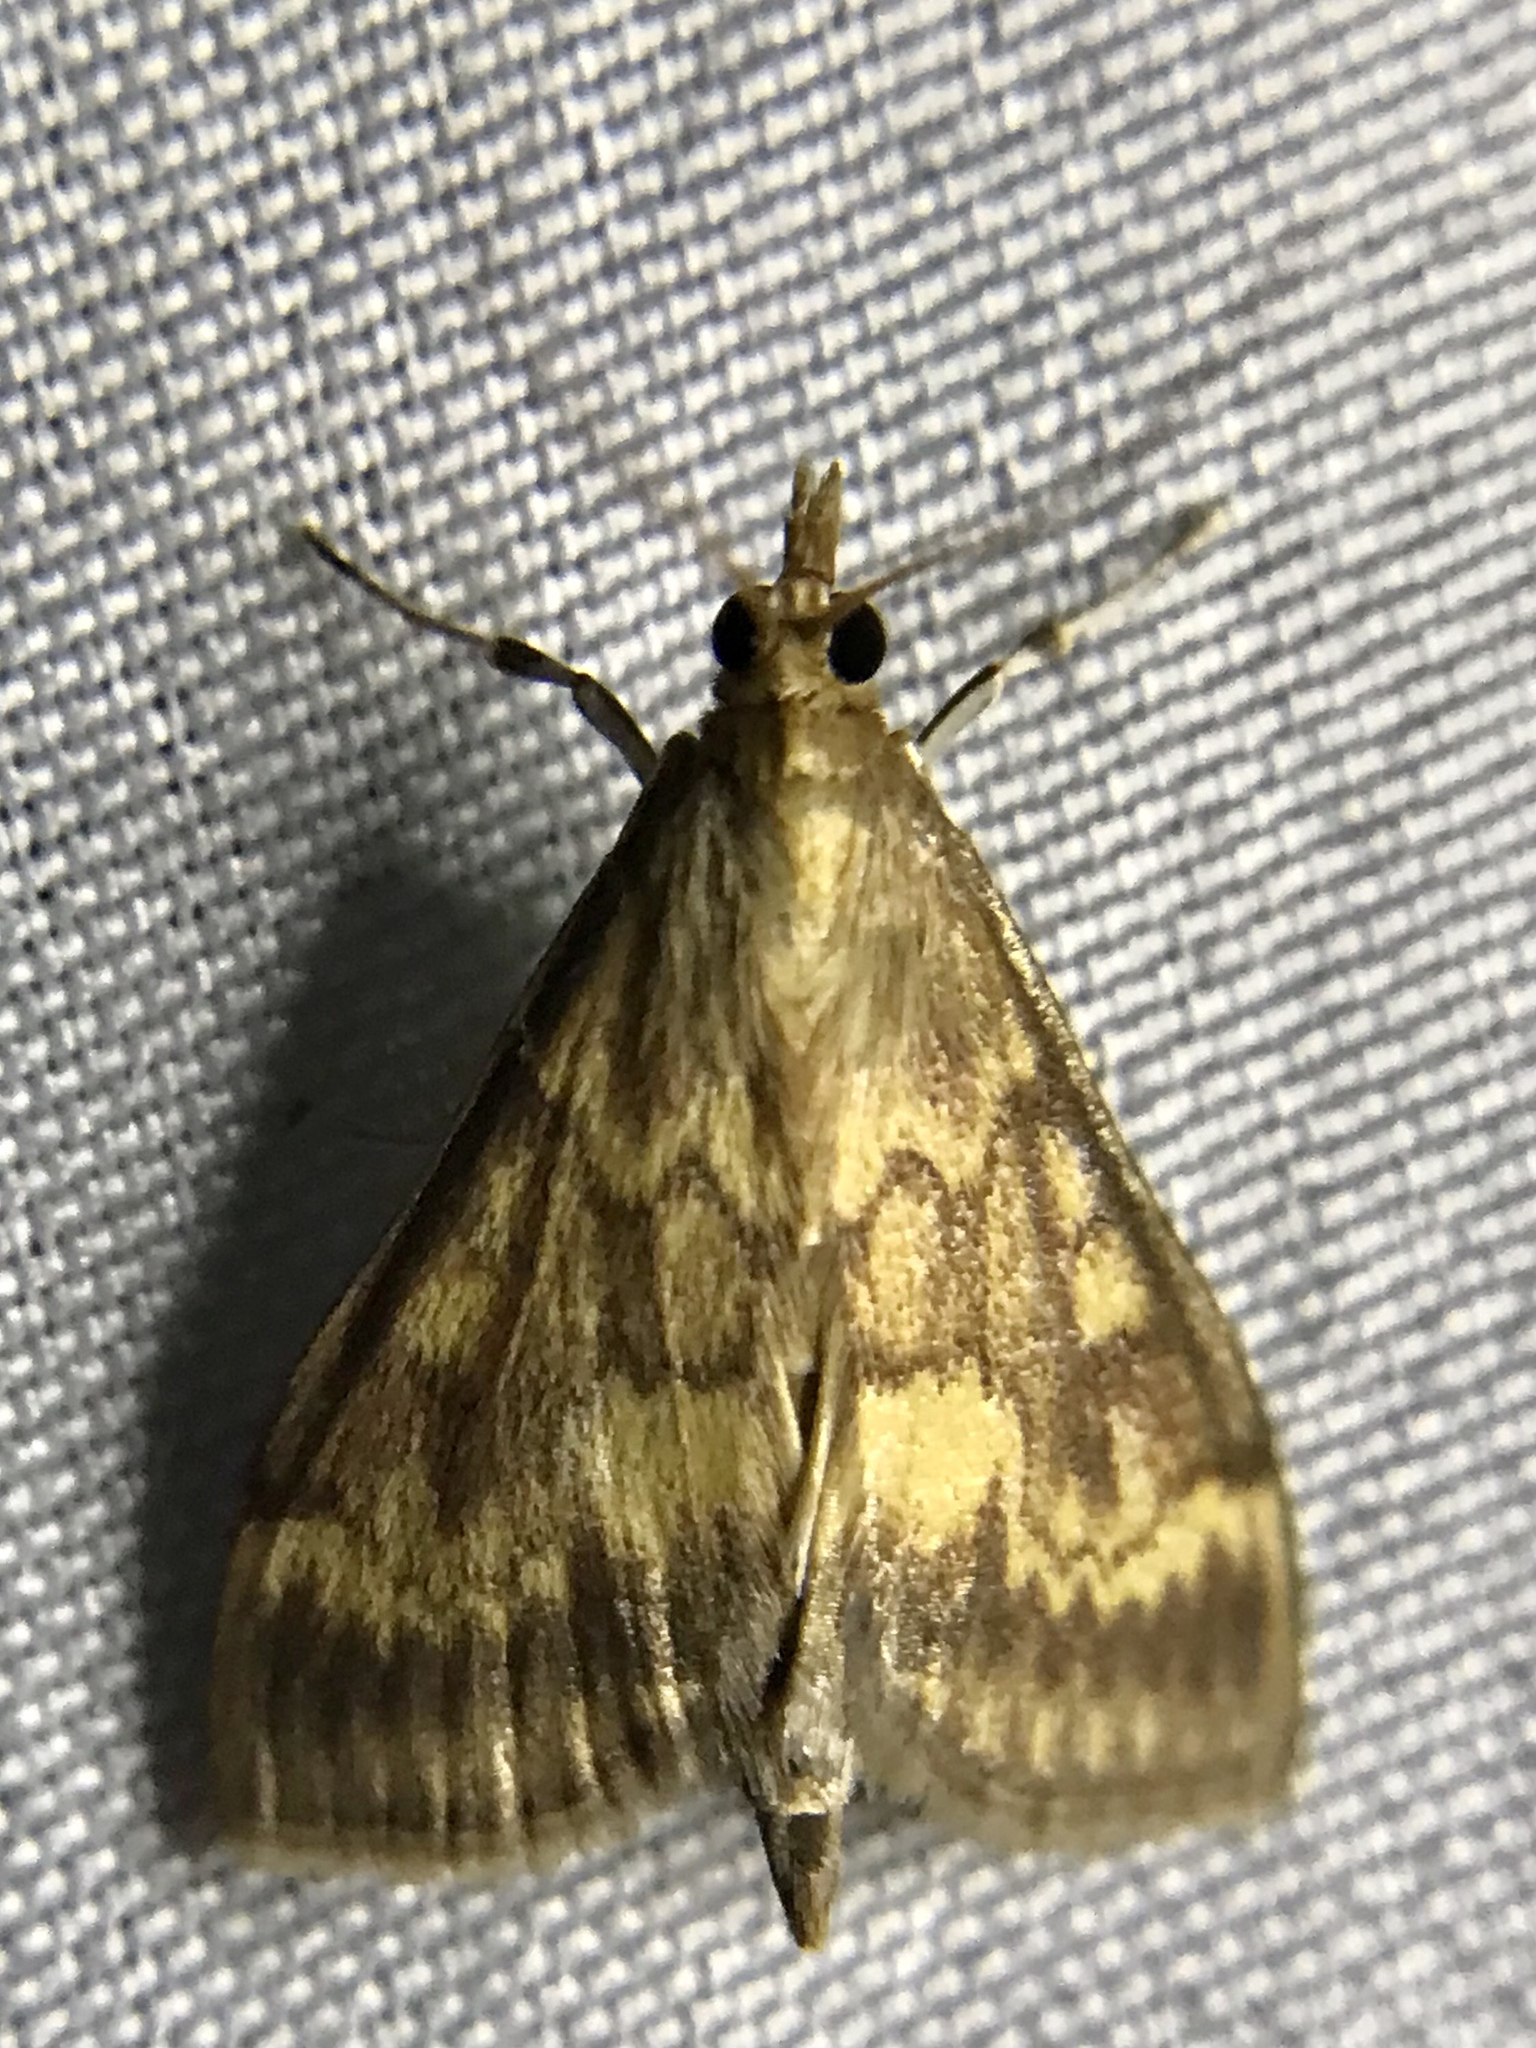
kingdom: Animalia
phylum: Arthropoda
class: Insecta
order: Lepidoptera
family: Crambidae
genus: Ostrinia
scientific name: Ostrinia nubilalis
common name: European corn borer
